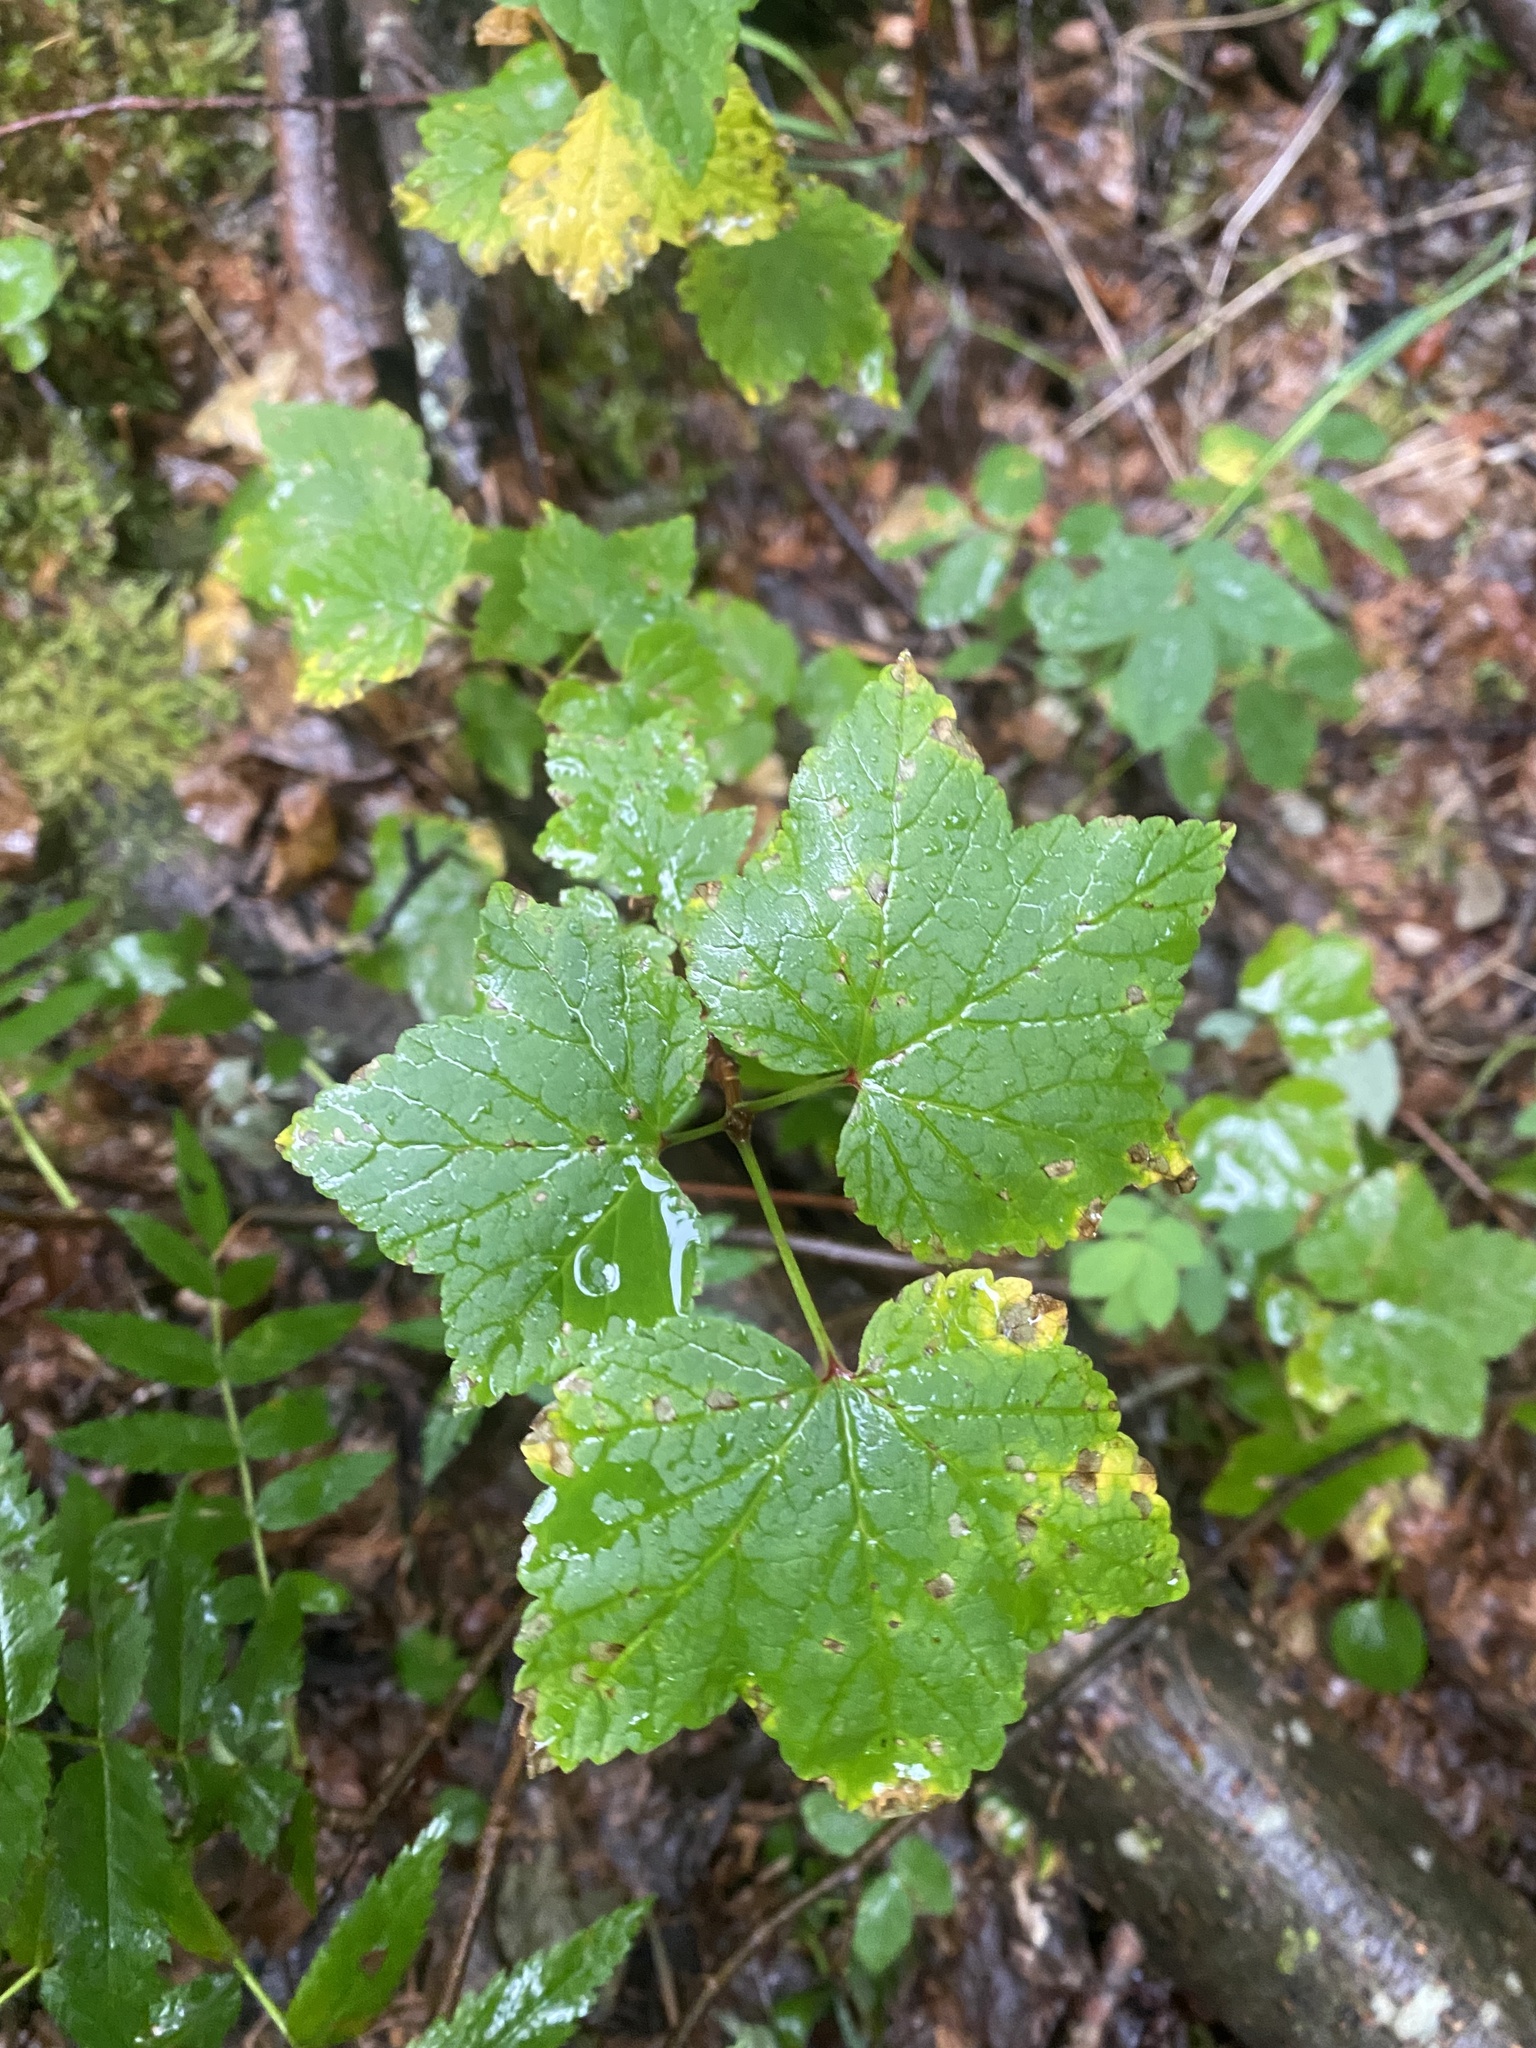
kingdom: Plantae
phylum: Tracheophyta
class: Magnoliopsida
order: Saxifragales
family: Grossulariaceae
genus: Ribes
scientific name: Ribes triste
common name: Swamp red currant
